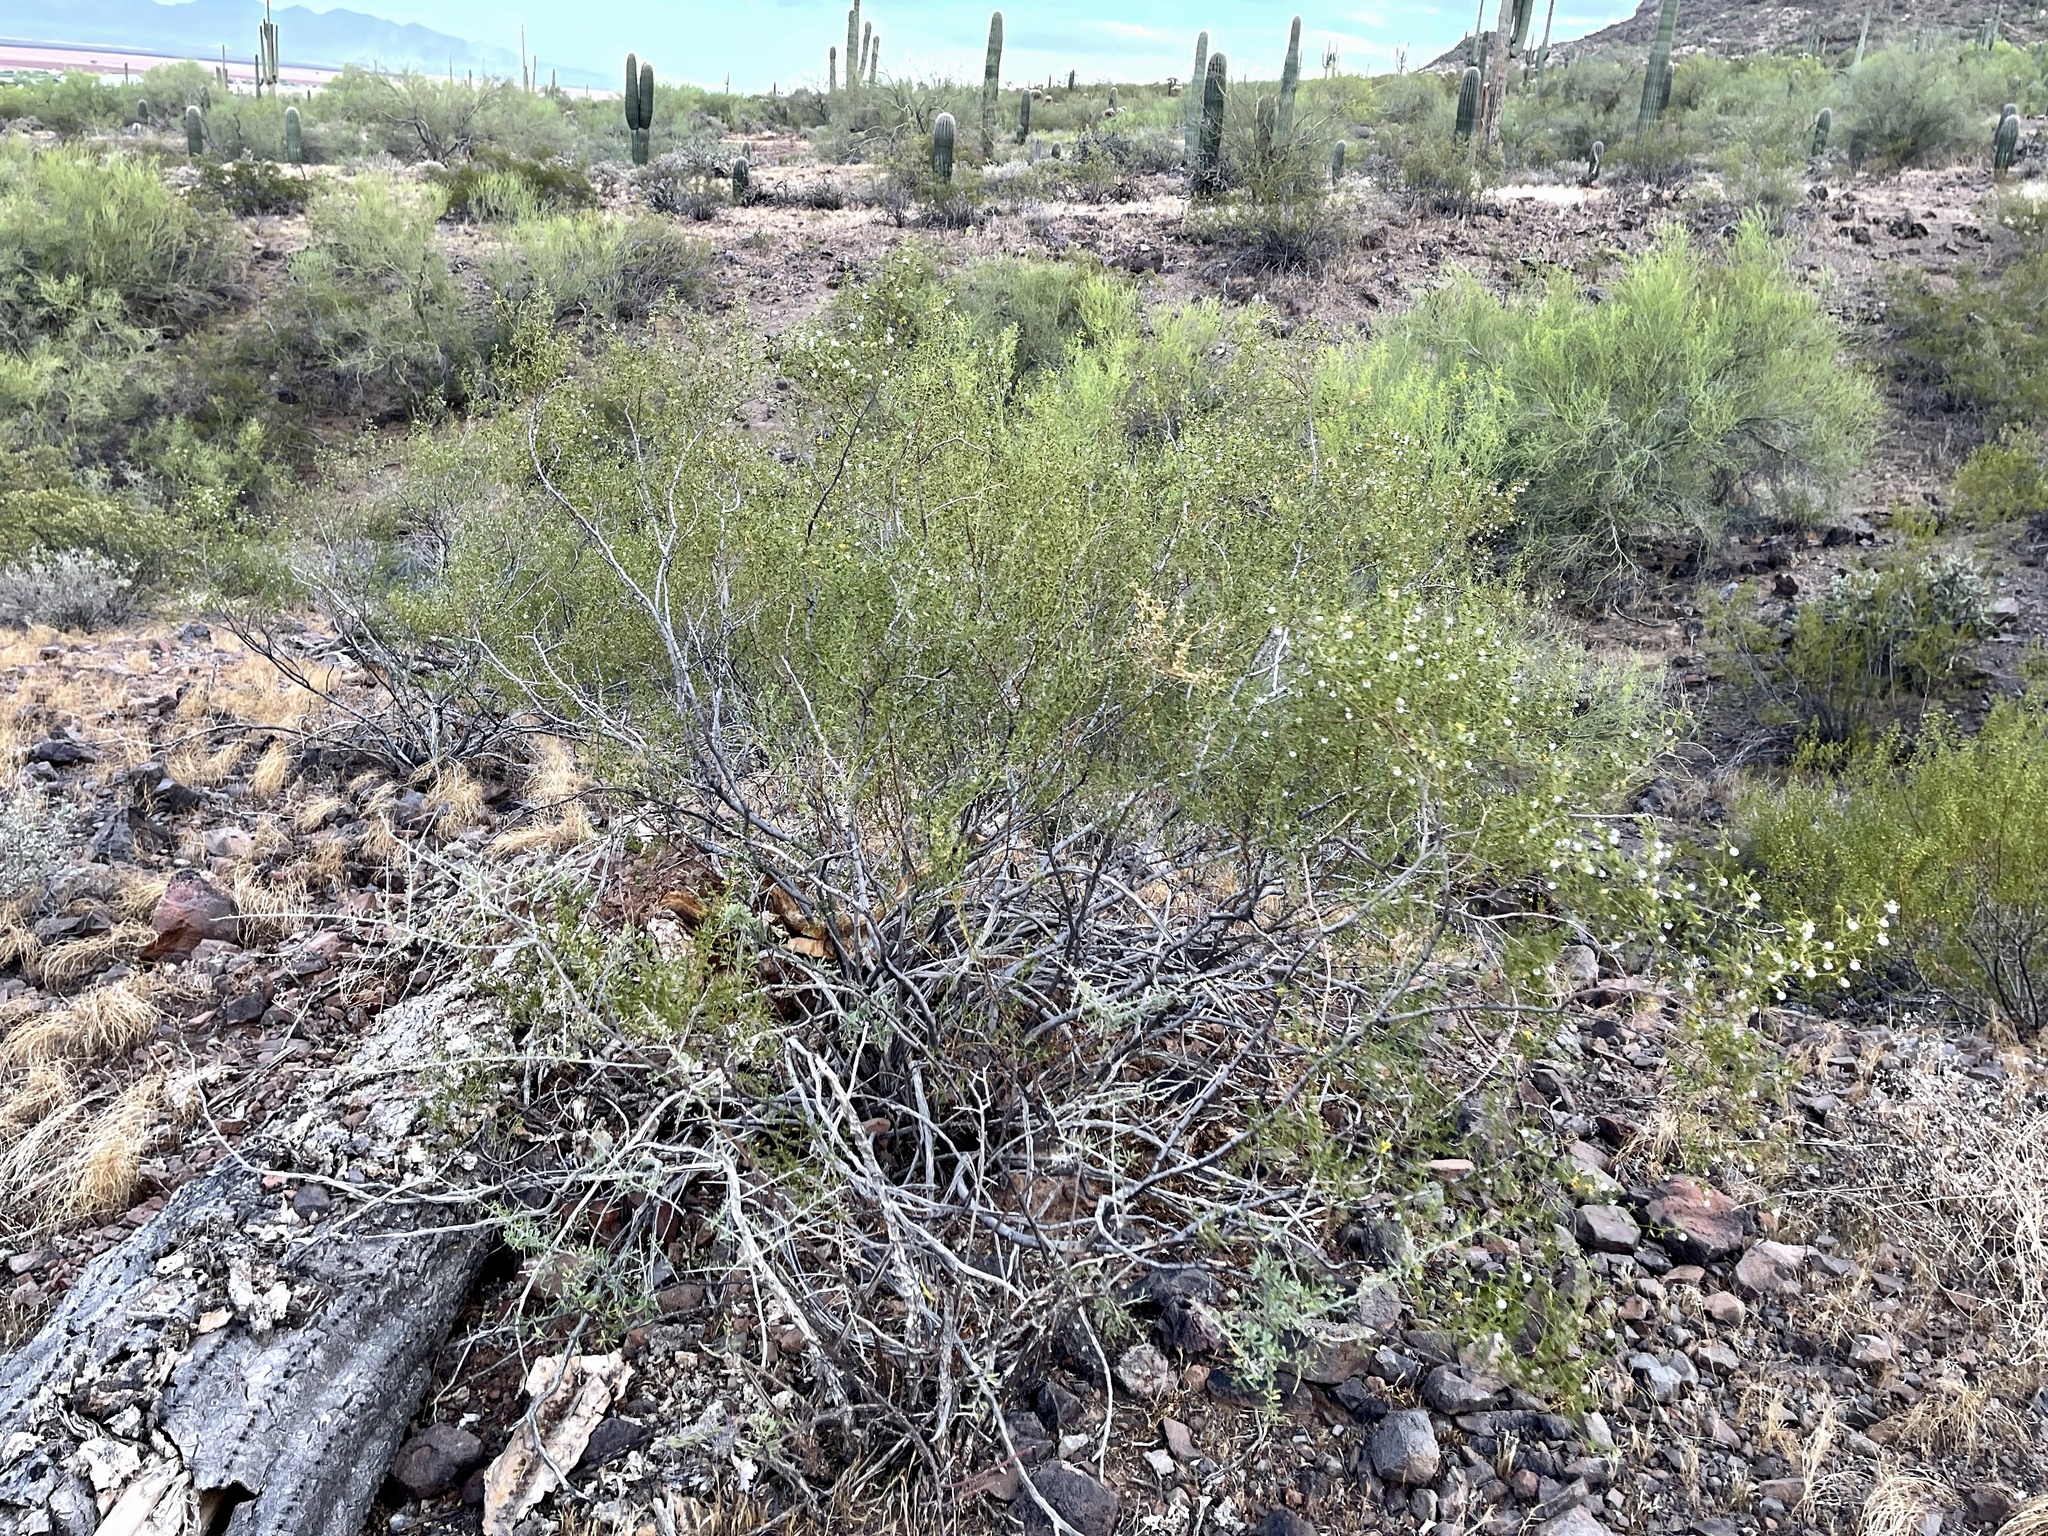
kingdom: Plantae
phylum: Tracheophyta
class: Magnoliopsida
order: Zygophyllales
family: Zygophyllaceae
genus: Larrea
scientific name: Larrea tridentata
